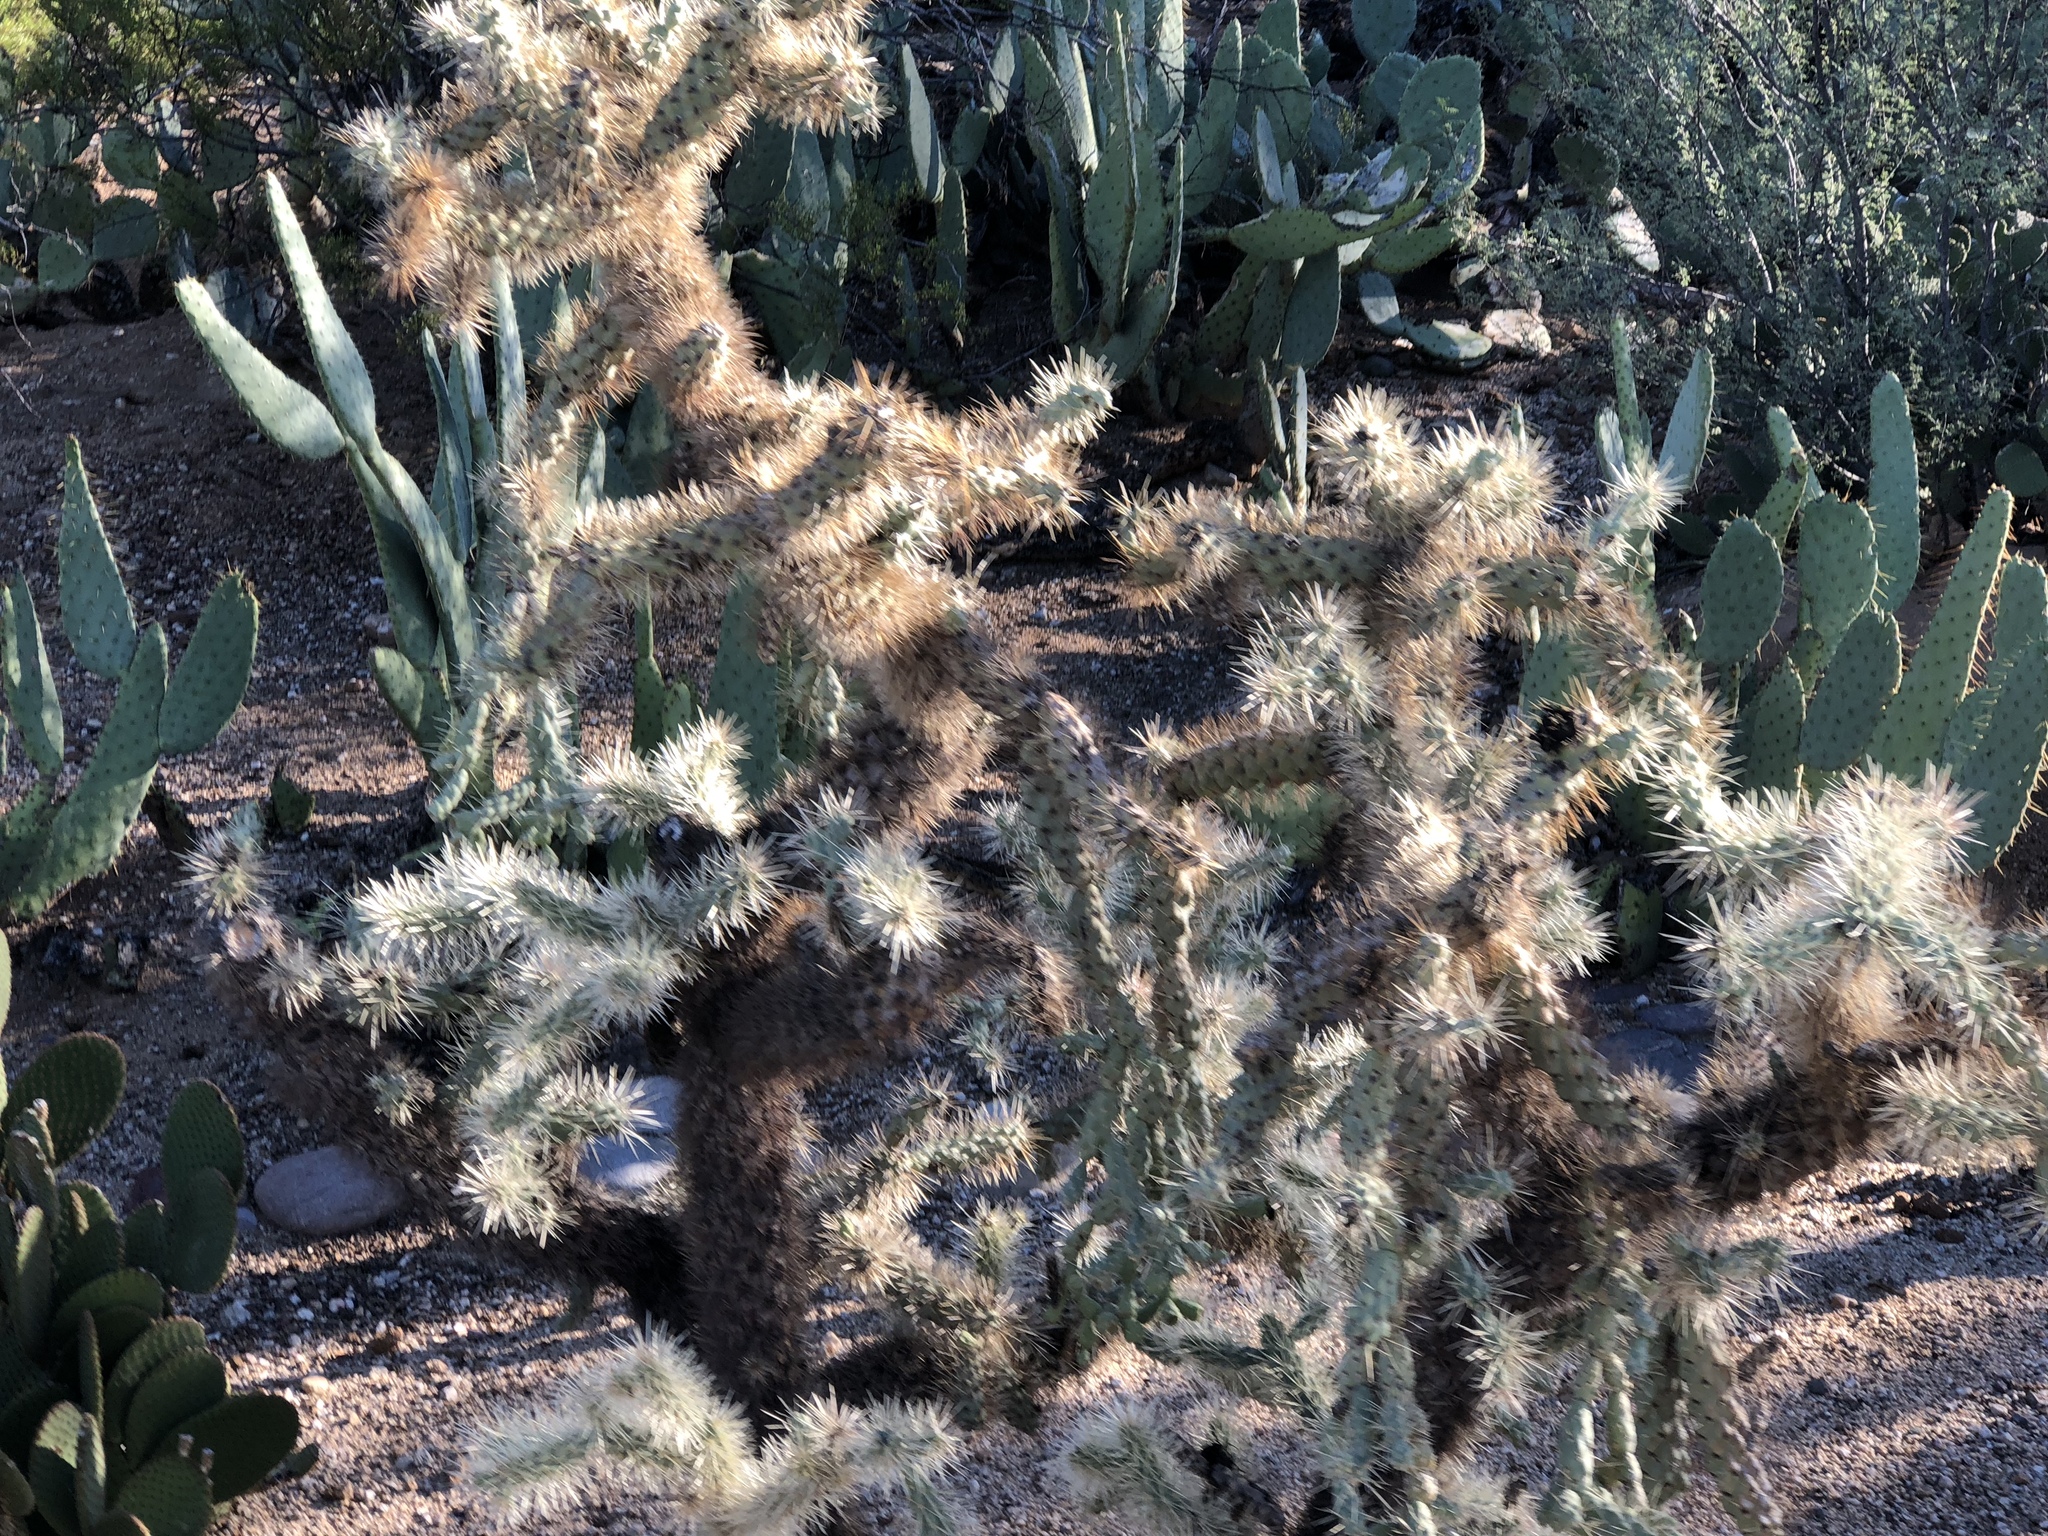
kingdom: Plantae
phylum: Tracheophyta
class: Magnoliopsida
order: Caryophyllales
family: Cactaceae
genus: Cylindropuntia
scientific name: Cylindropuntia fulgida
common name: Jumping cholla
